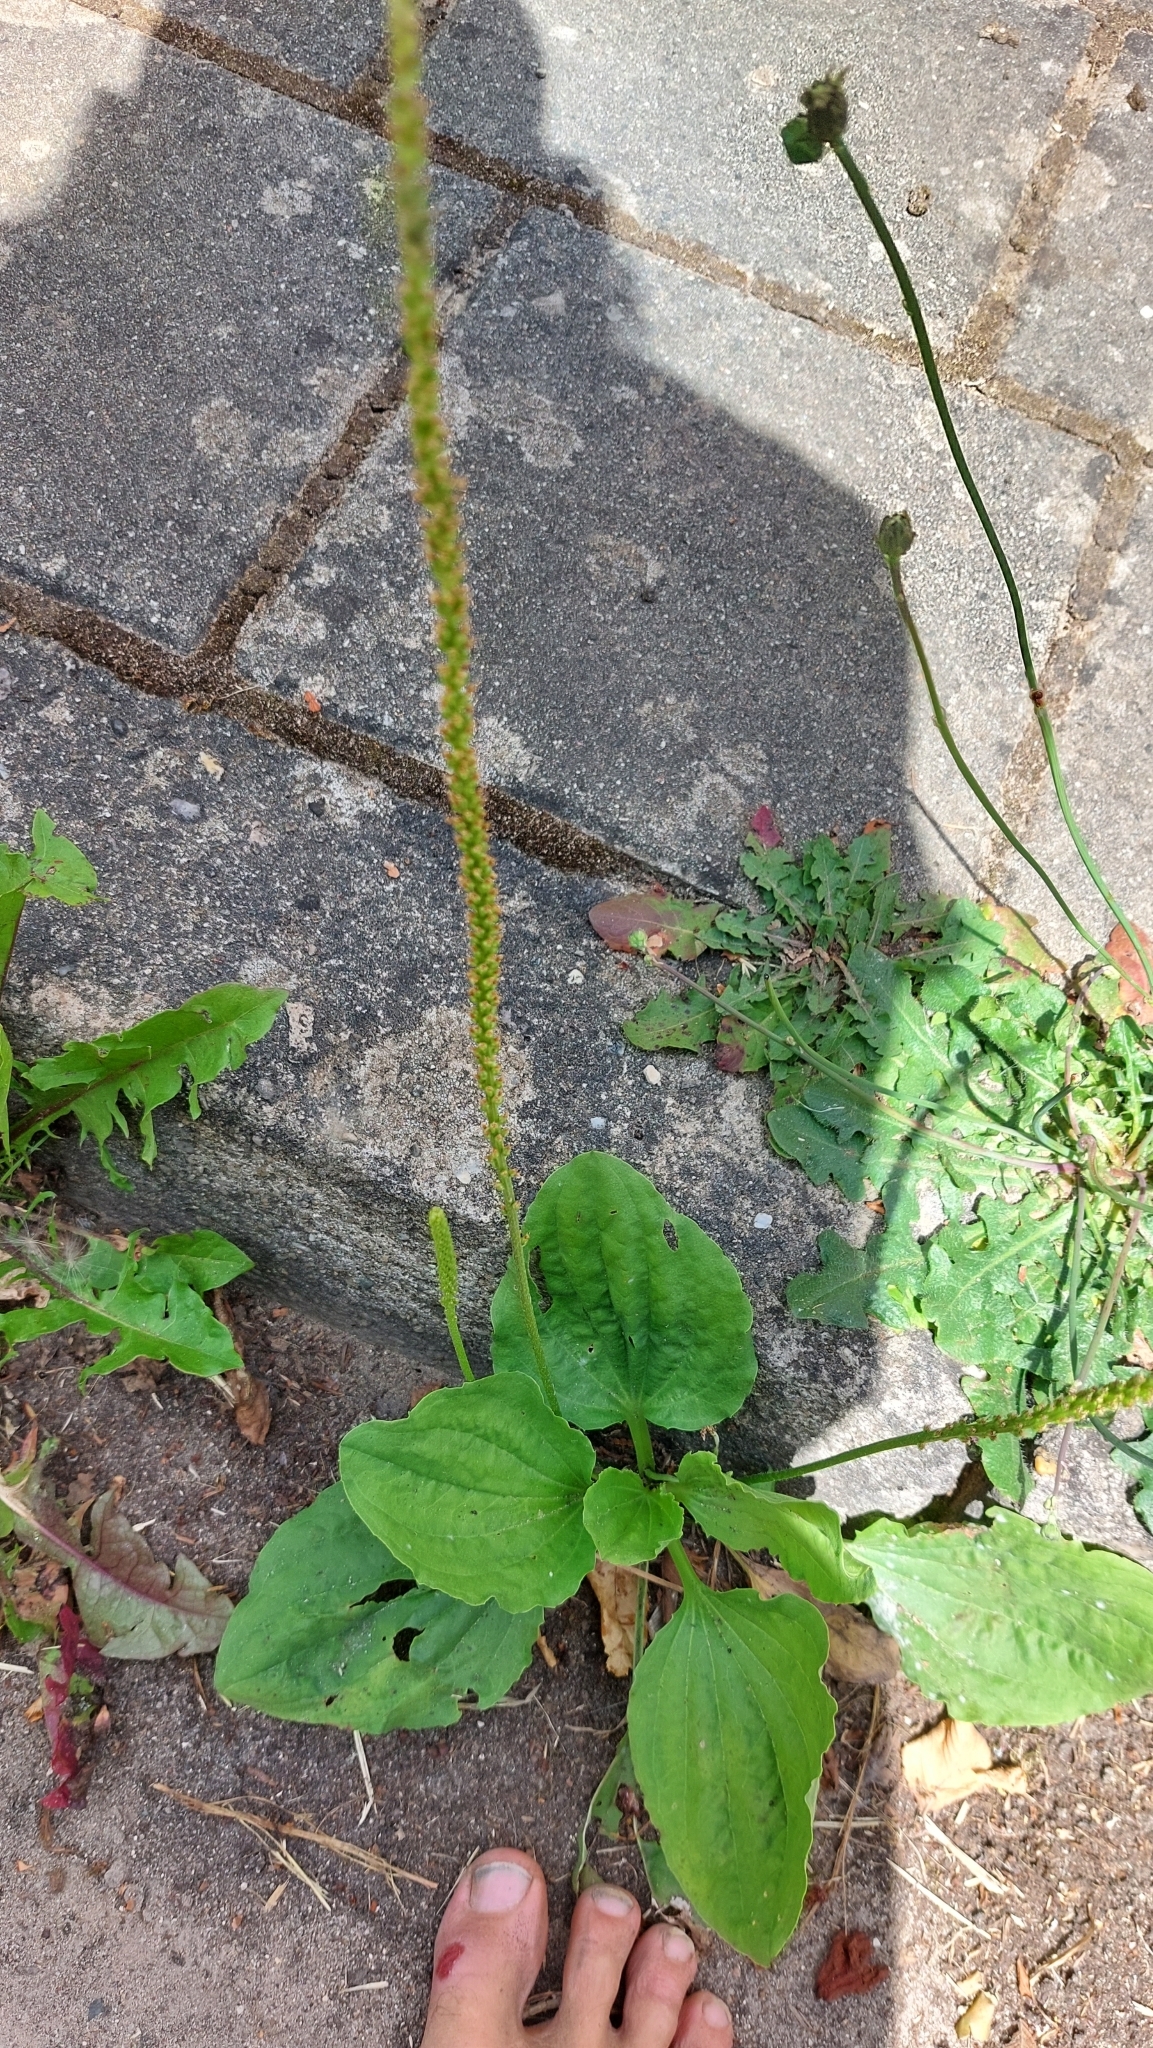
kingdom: Plantae
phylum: Tracheophyta
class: Magnoliopsida
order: Lamiales
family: Plantaginaceae
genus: Plantago
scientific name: Plantago major
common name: Common plantain
